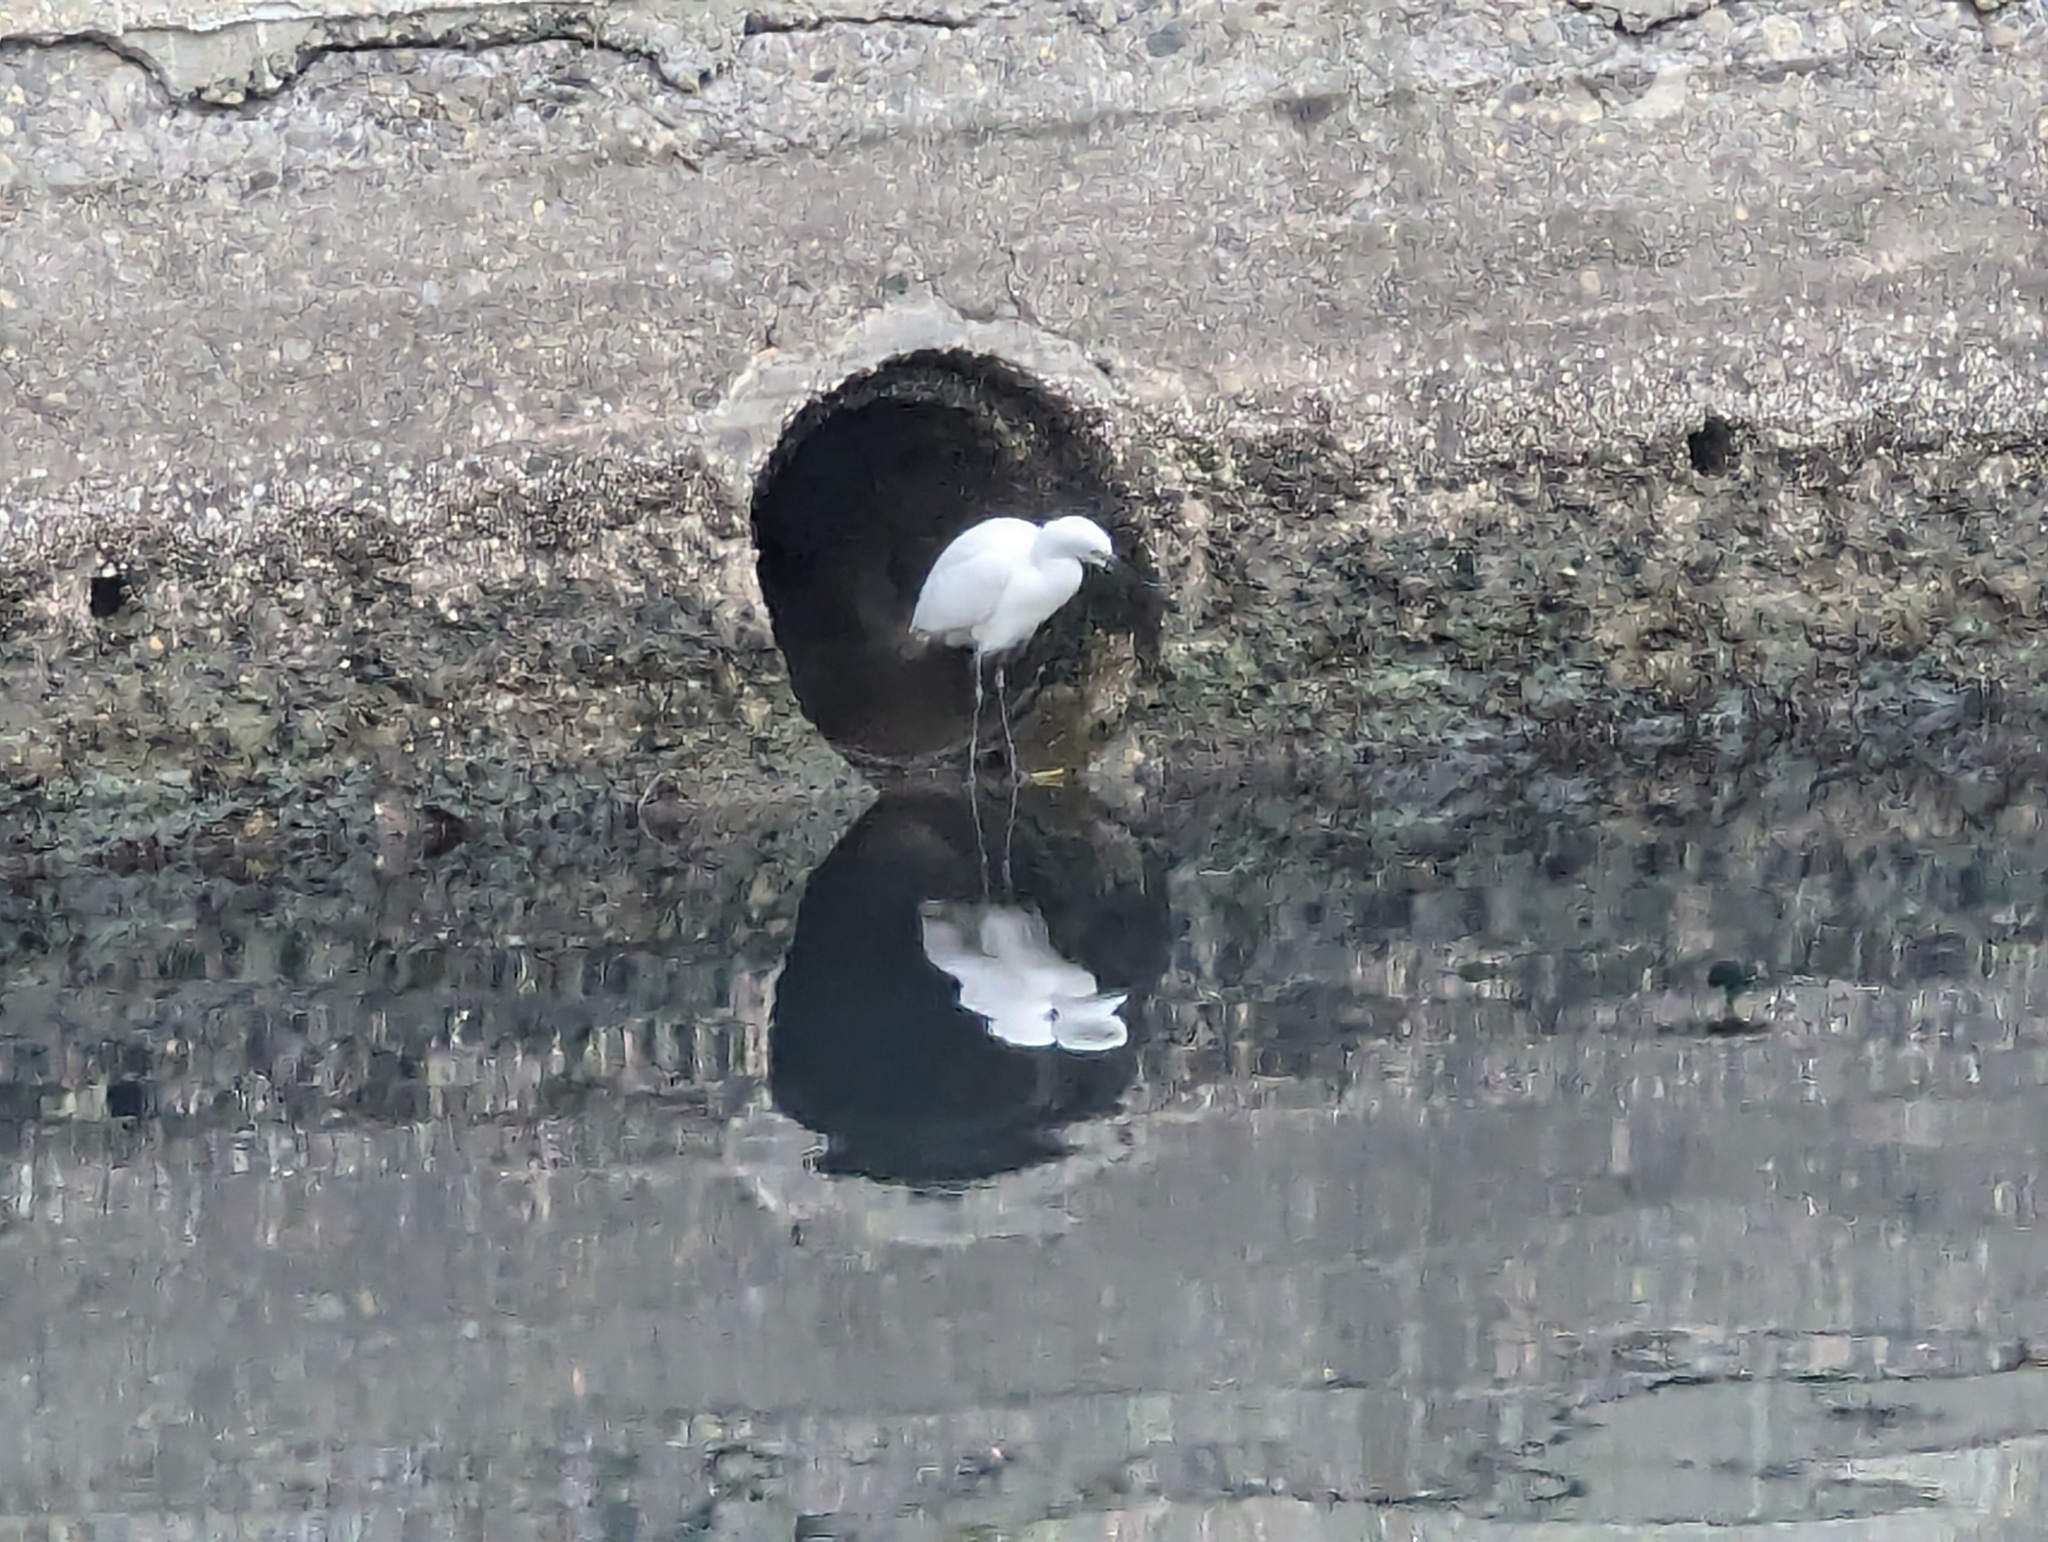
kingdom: Animalia
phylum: Chordata
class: Aves
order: Pelecaniformes
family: Ardeidae
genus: Egretta
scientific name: Egretta garzetta
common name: Little egret
